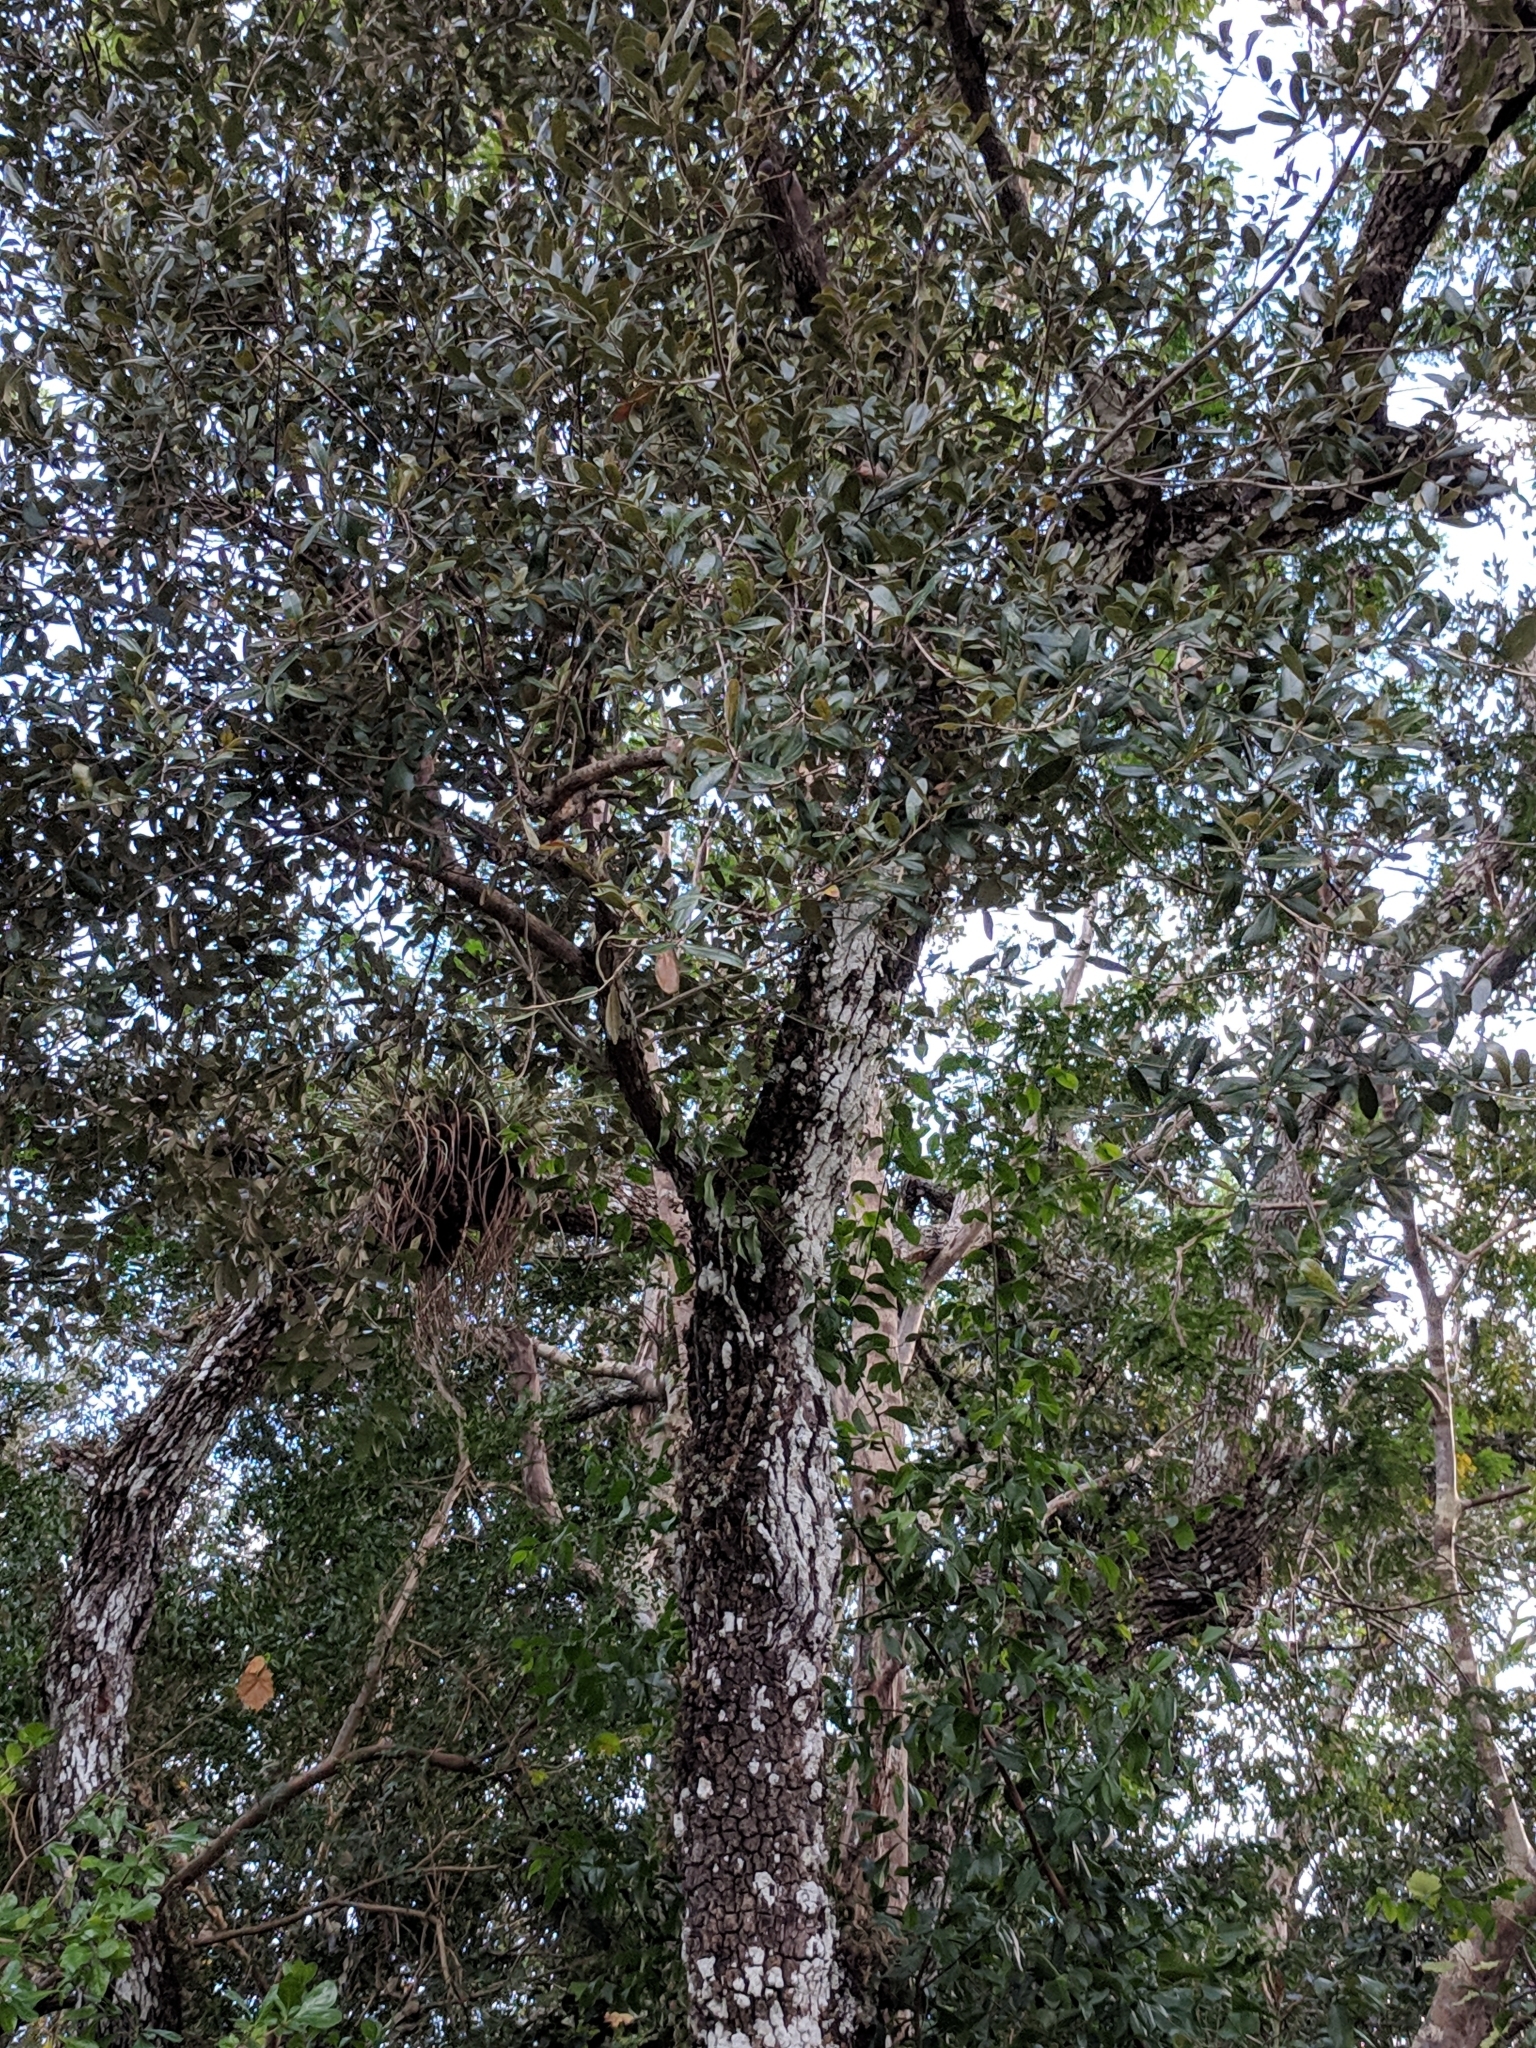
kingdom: Plantae
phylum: Tracheophyta
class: Magnoliopsida
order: Fagales
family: Fagaceae
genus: Quercus
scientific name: Quercus virginiana
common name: Southern live oak
